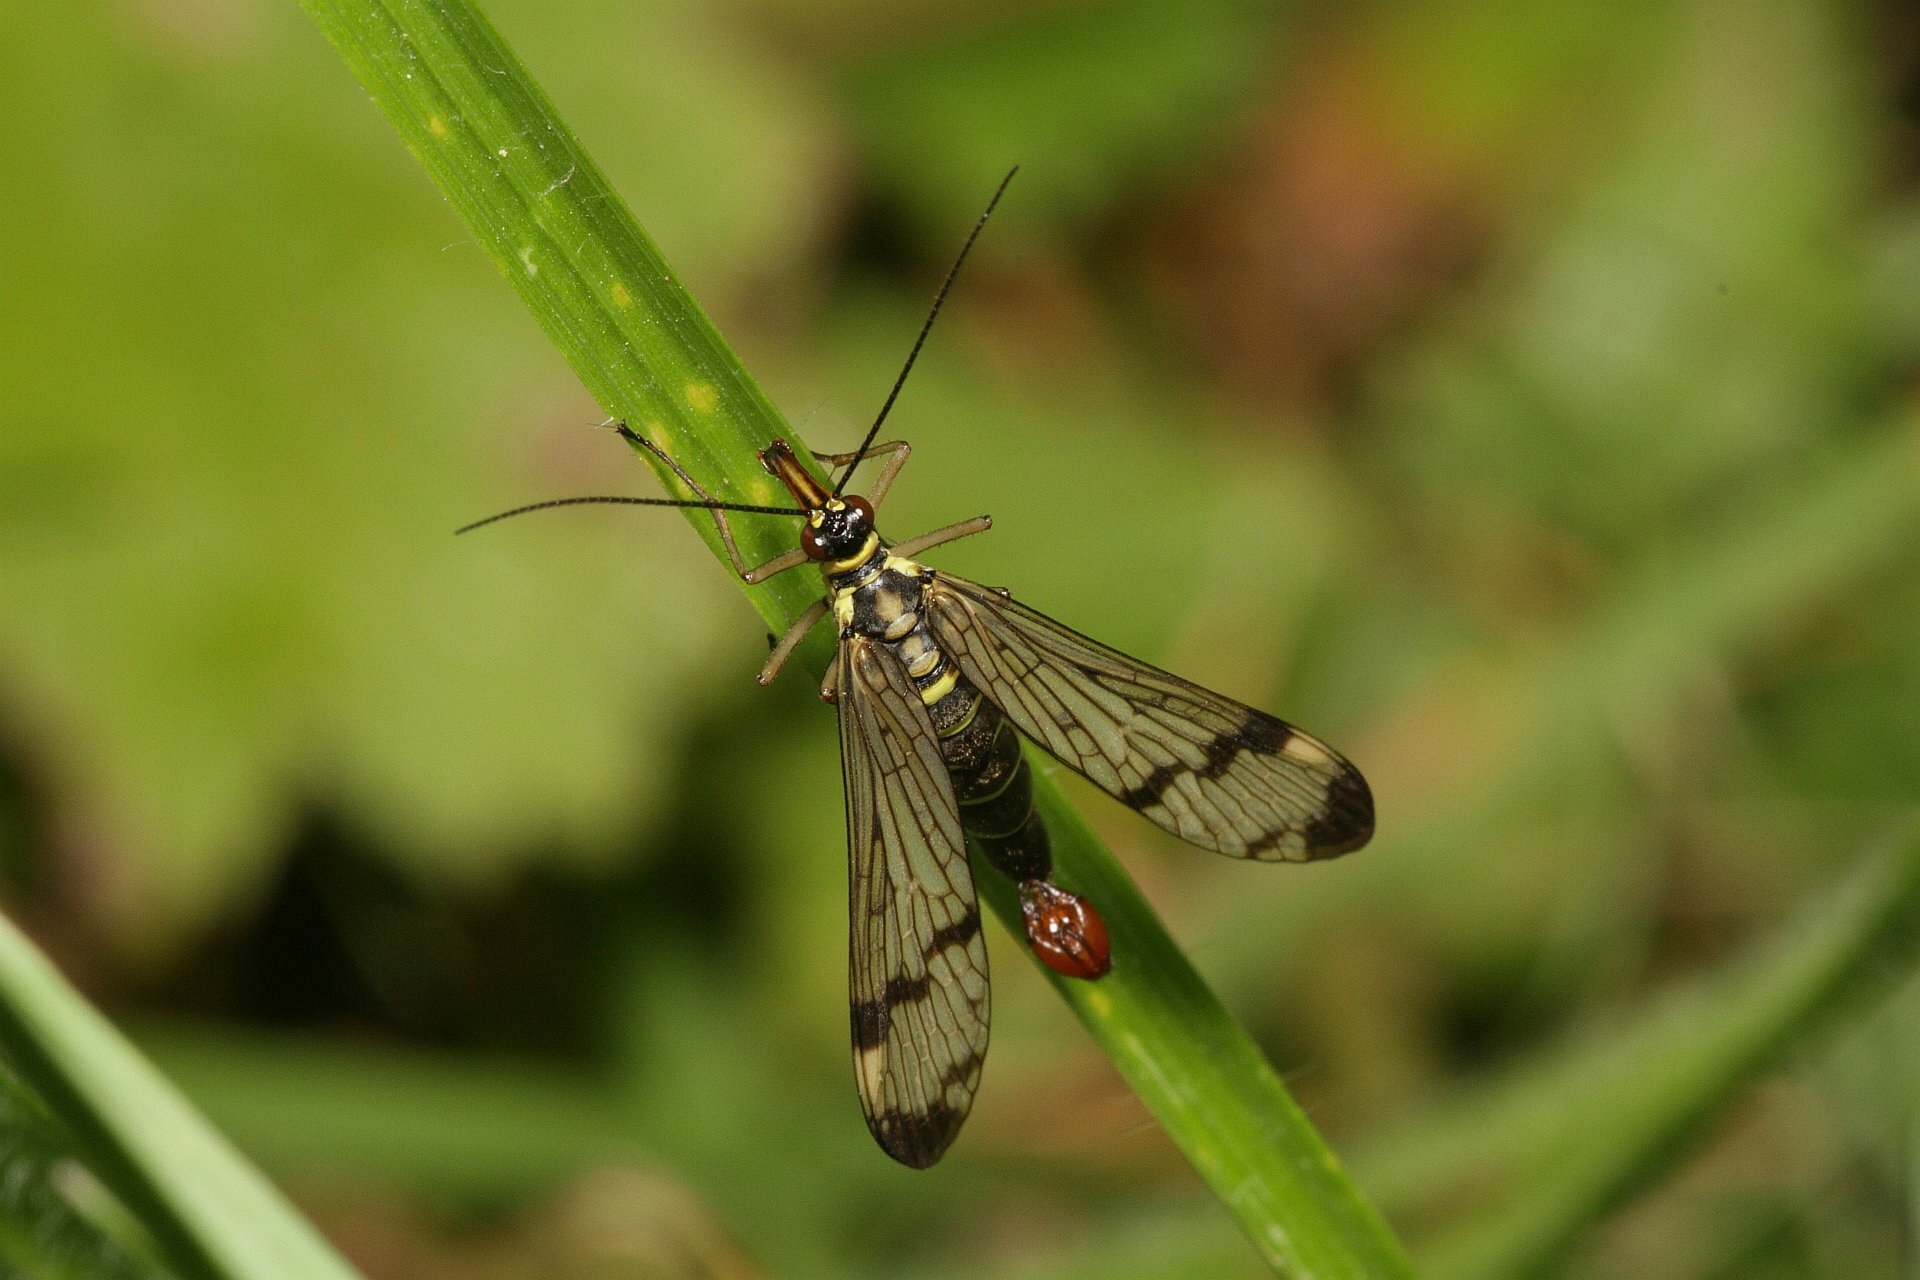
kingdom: Animalia
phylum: Arthropoda
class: Insecta
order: Mecoptera
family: Panorpidae
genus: Panorpa
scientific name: Panorpa communis
